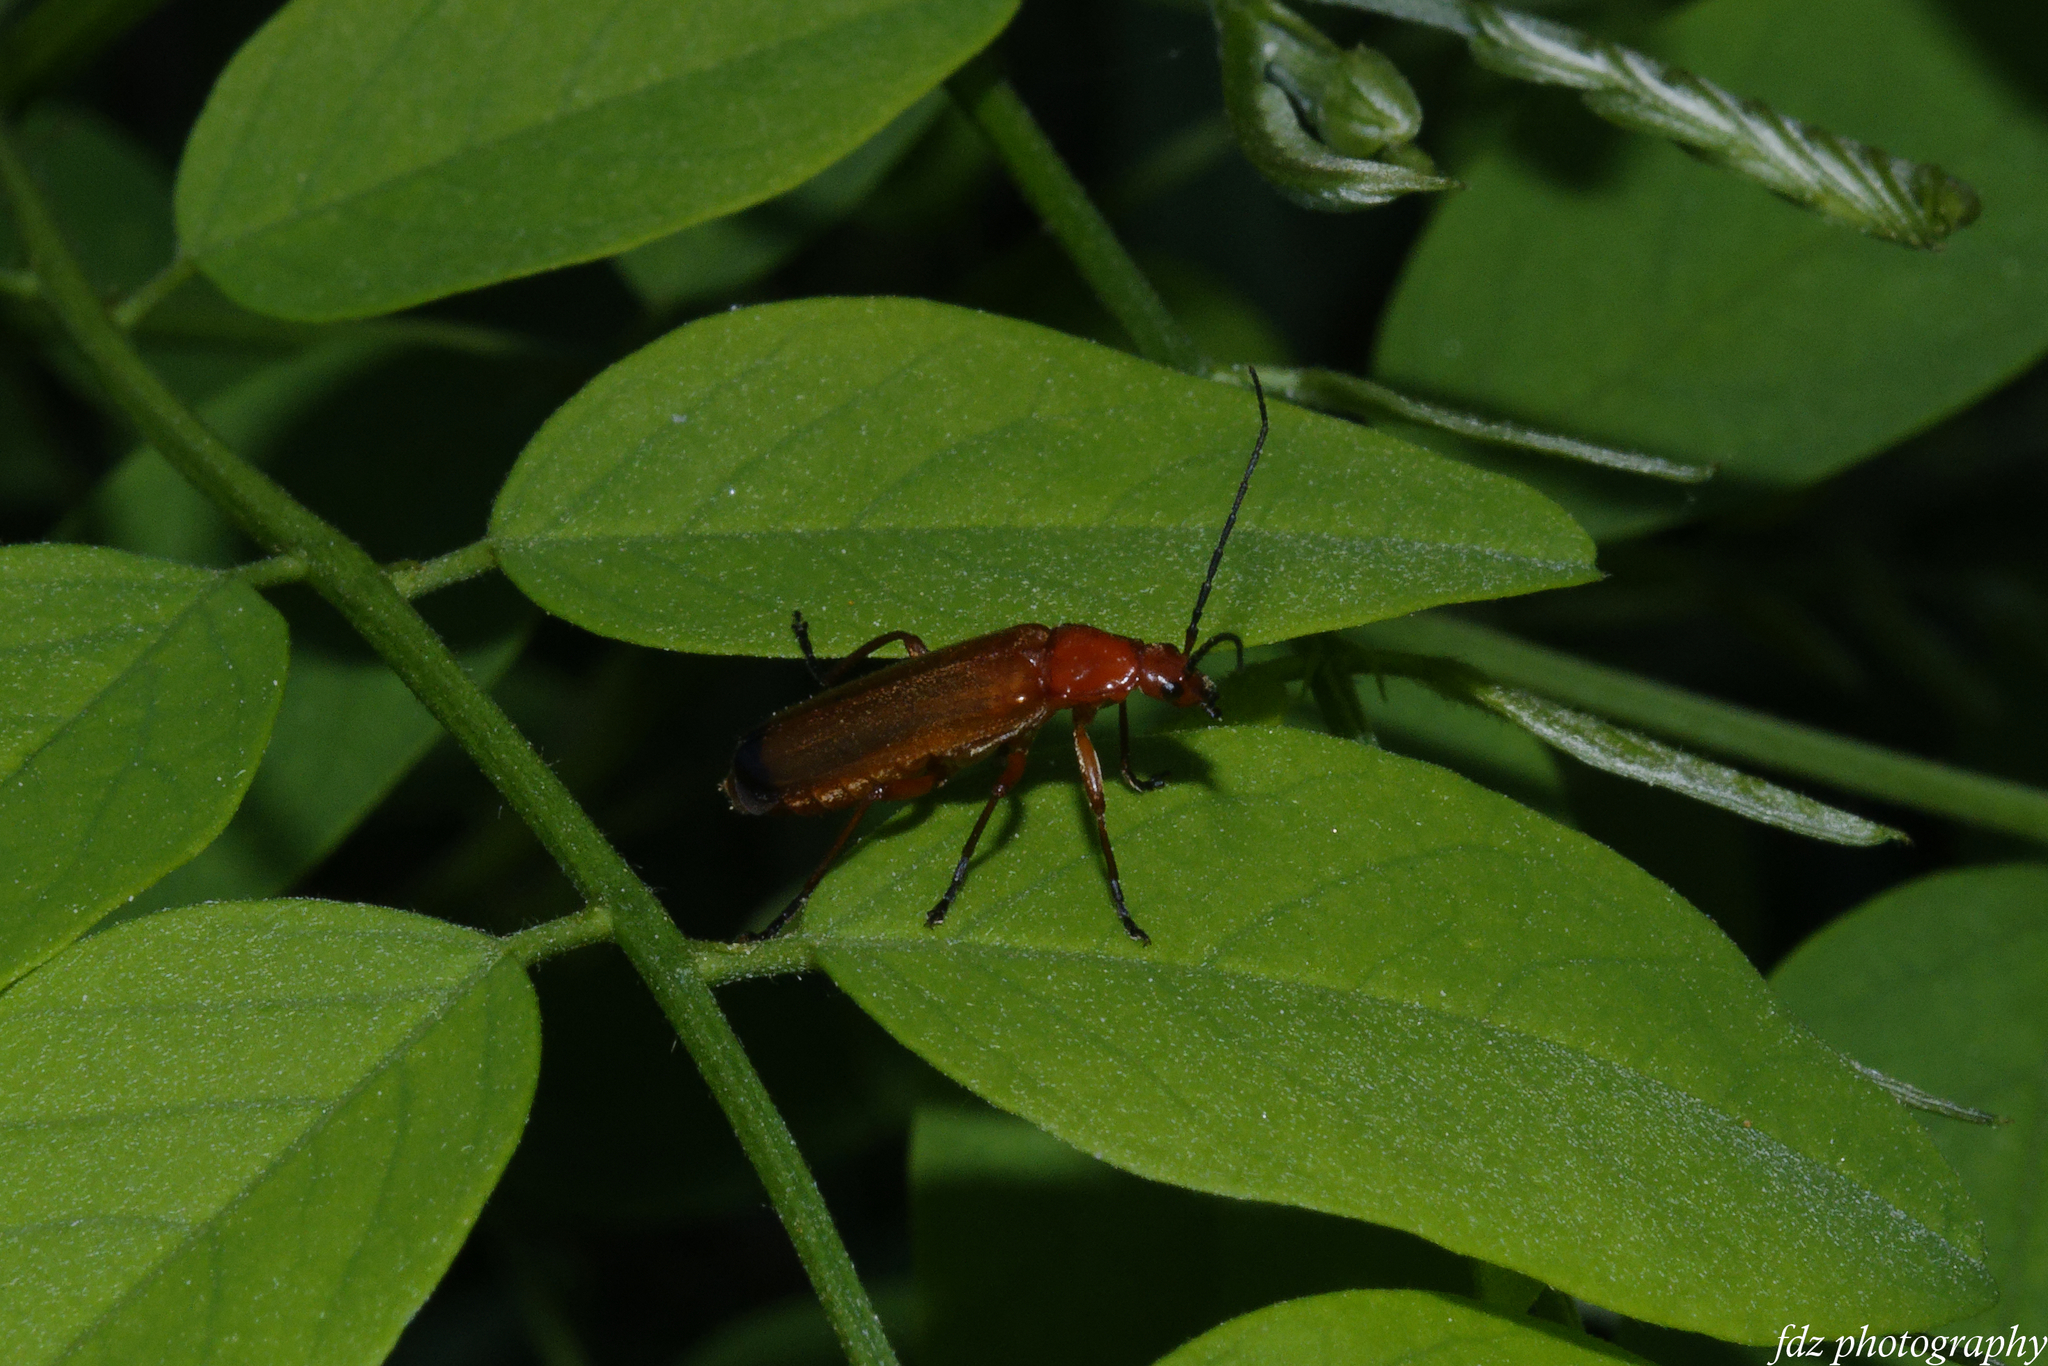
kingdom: Animalia
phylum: Arthropoda
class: Insecta
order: Coleoptera
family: Cantharidae
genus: Rhagonycha
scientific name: Rhagonycha fulva
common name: Common red soldier beetle
